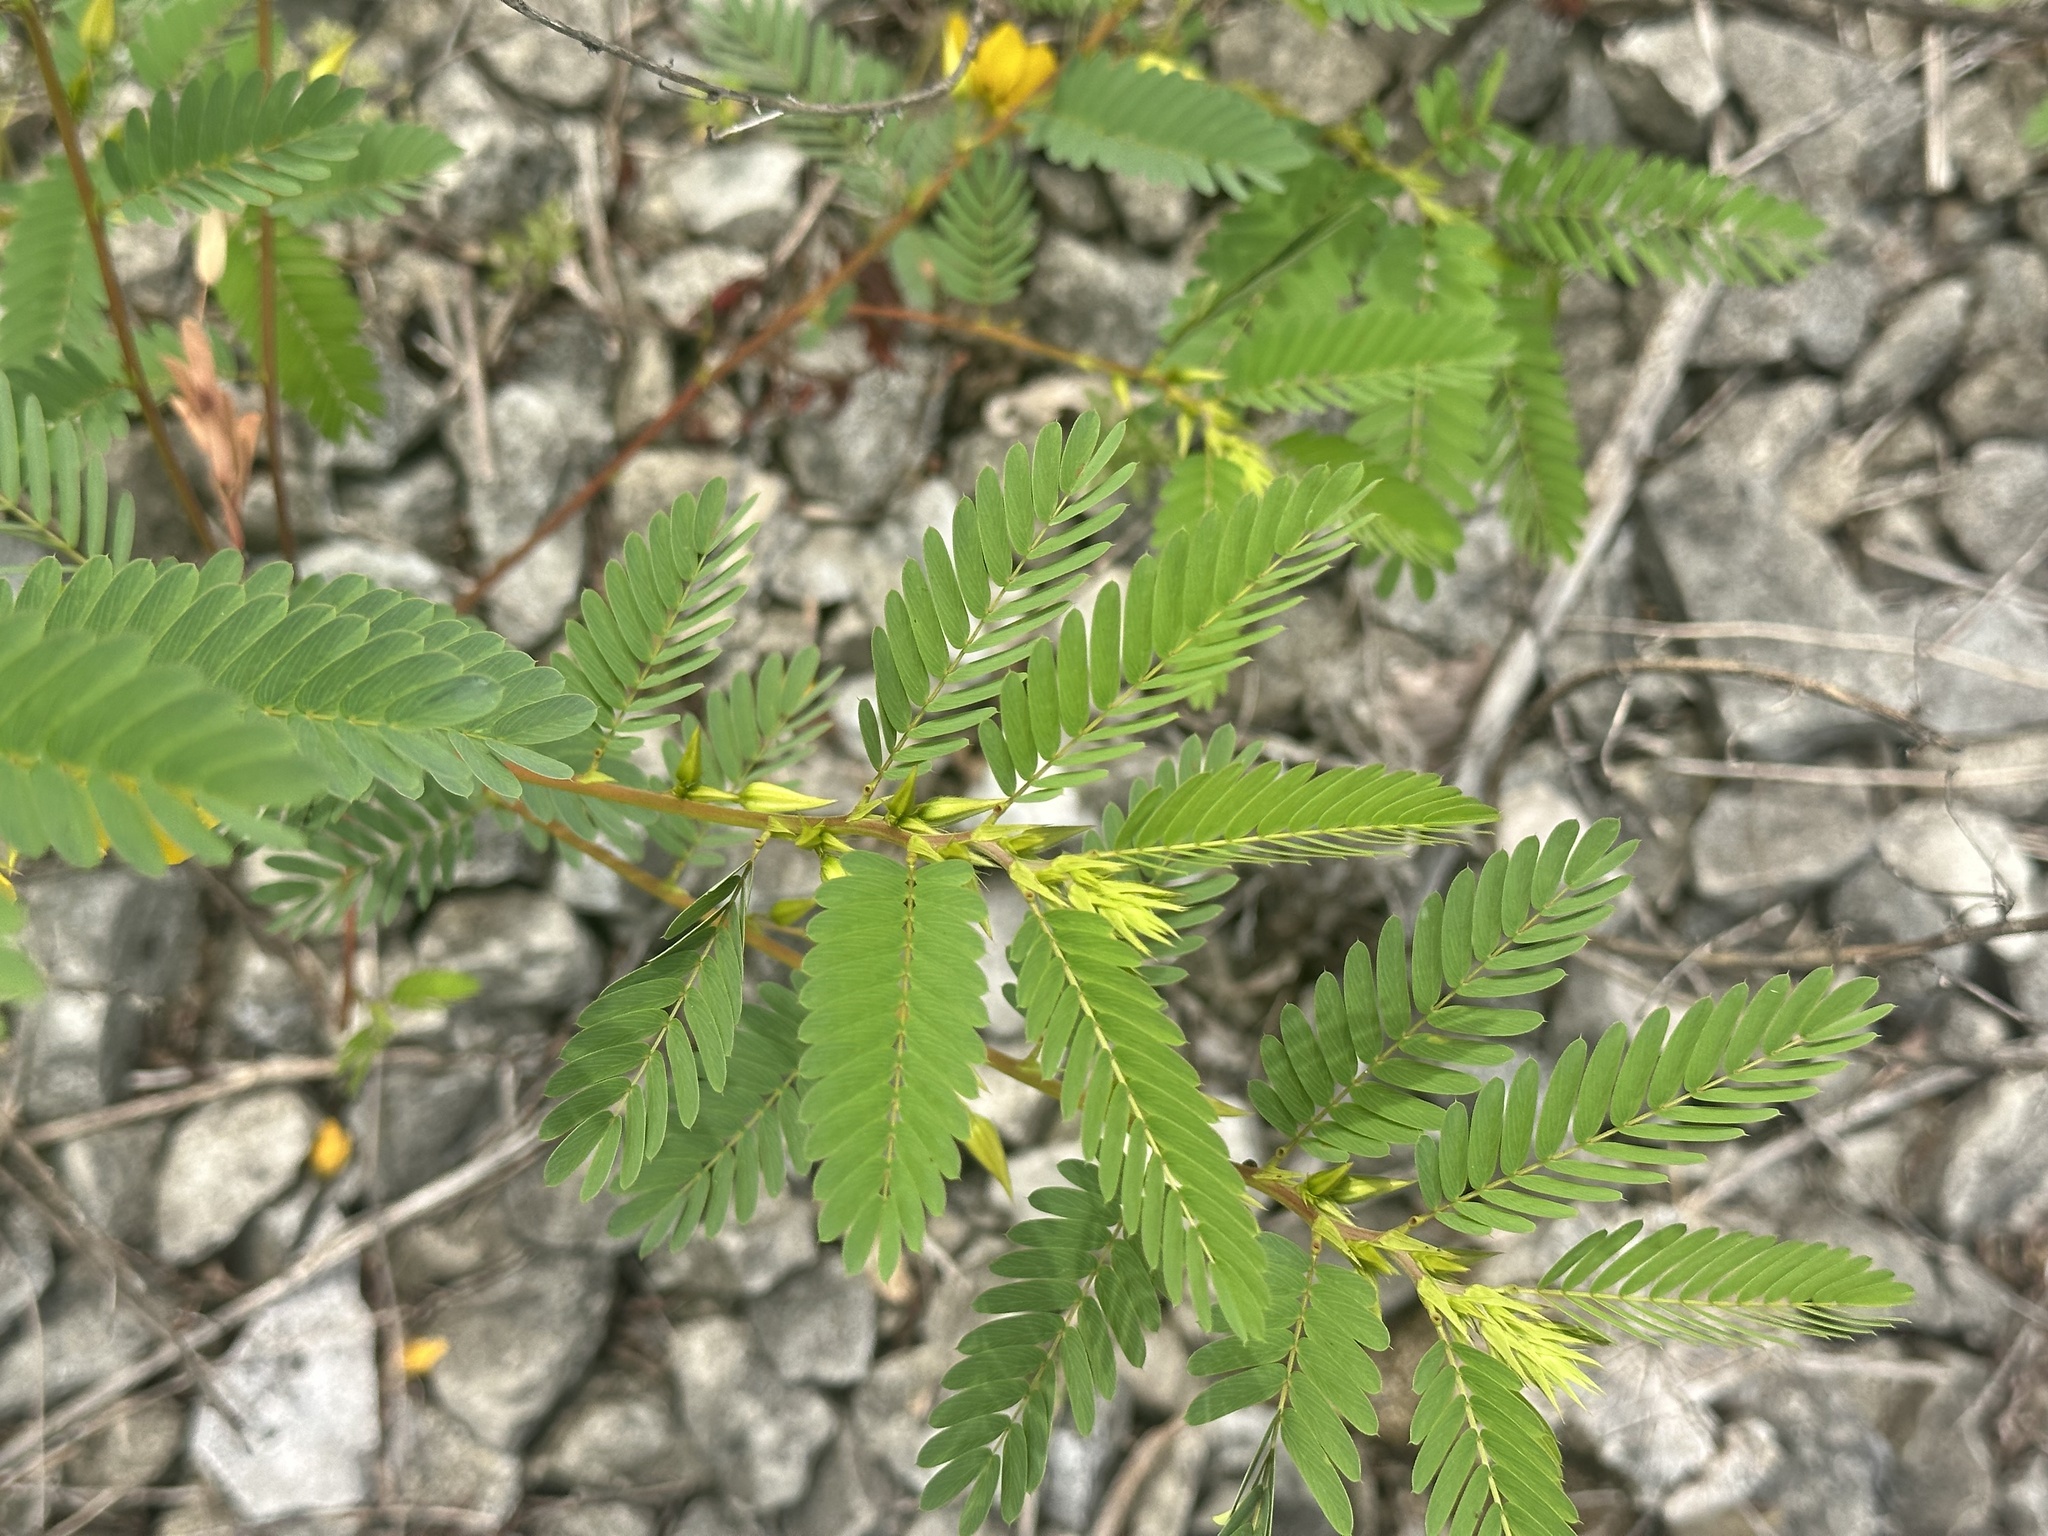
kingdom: Plantae
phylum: Tracheophyta
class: Magnoliopsida
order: Fabales
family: Fabaceae
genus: Chamaecrista
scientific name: Chamaecrista fasciculata
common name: Golden cassia
